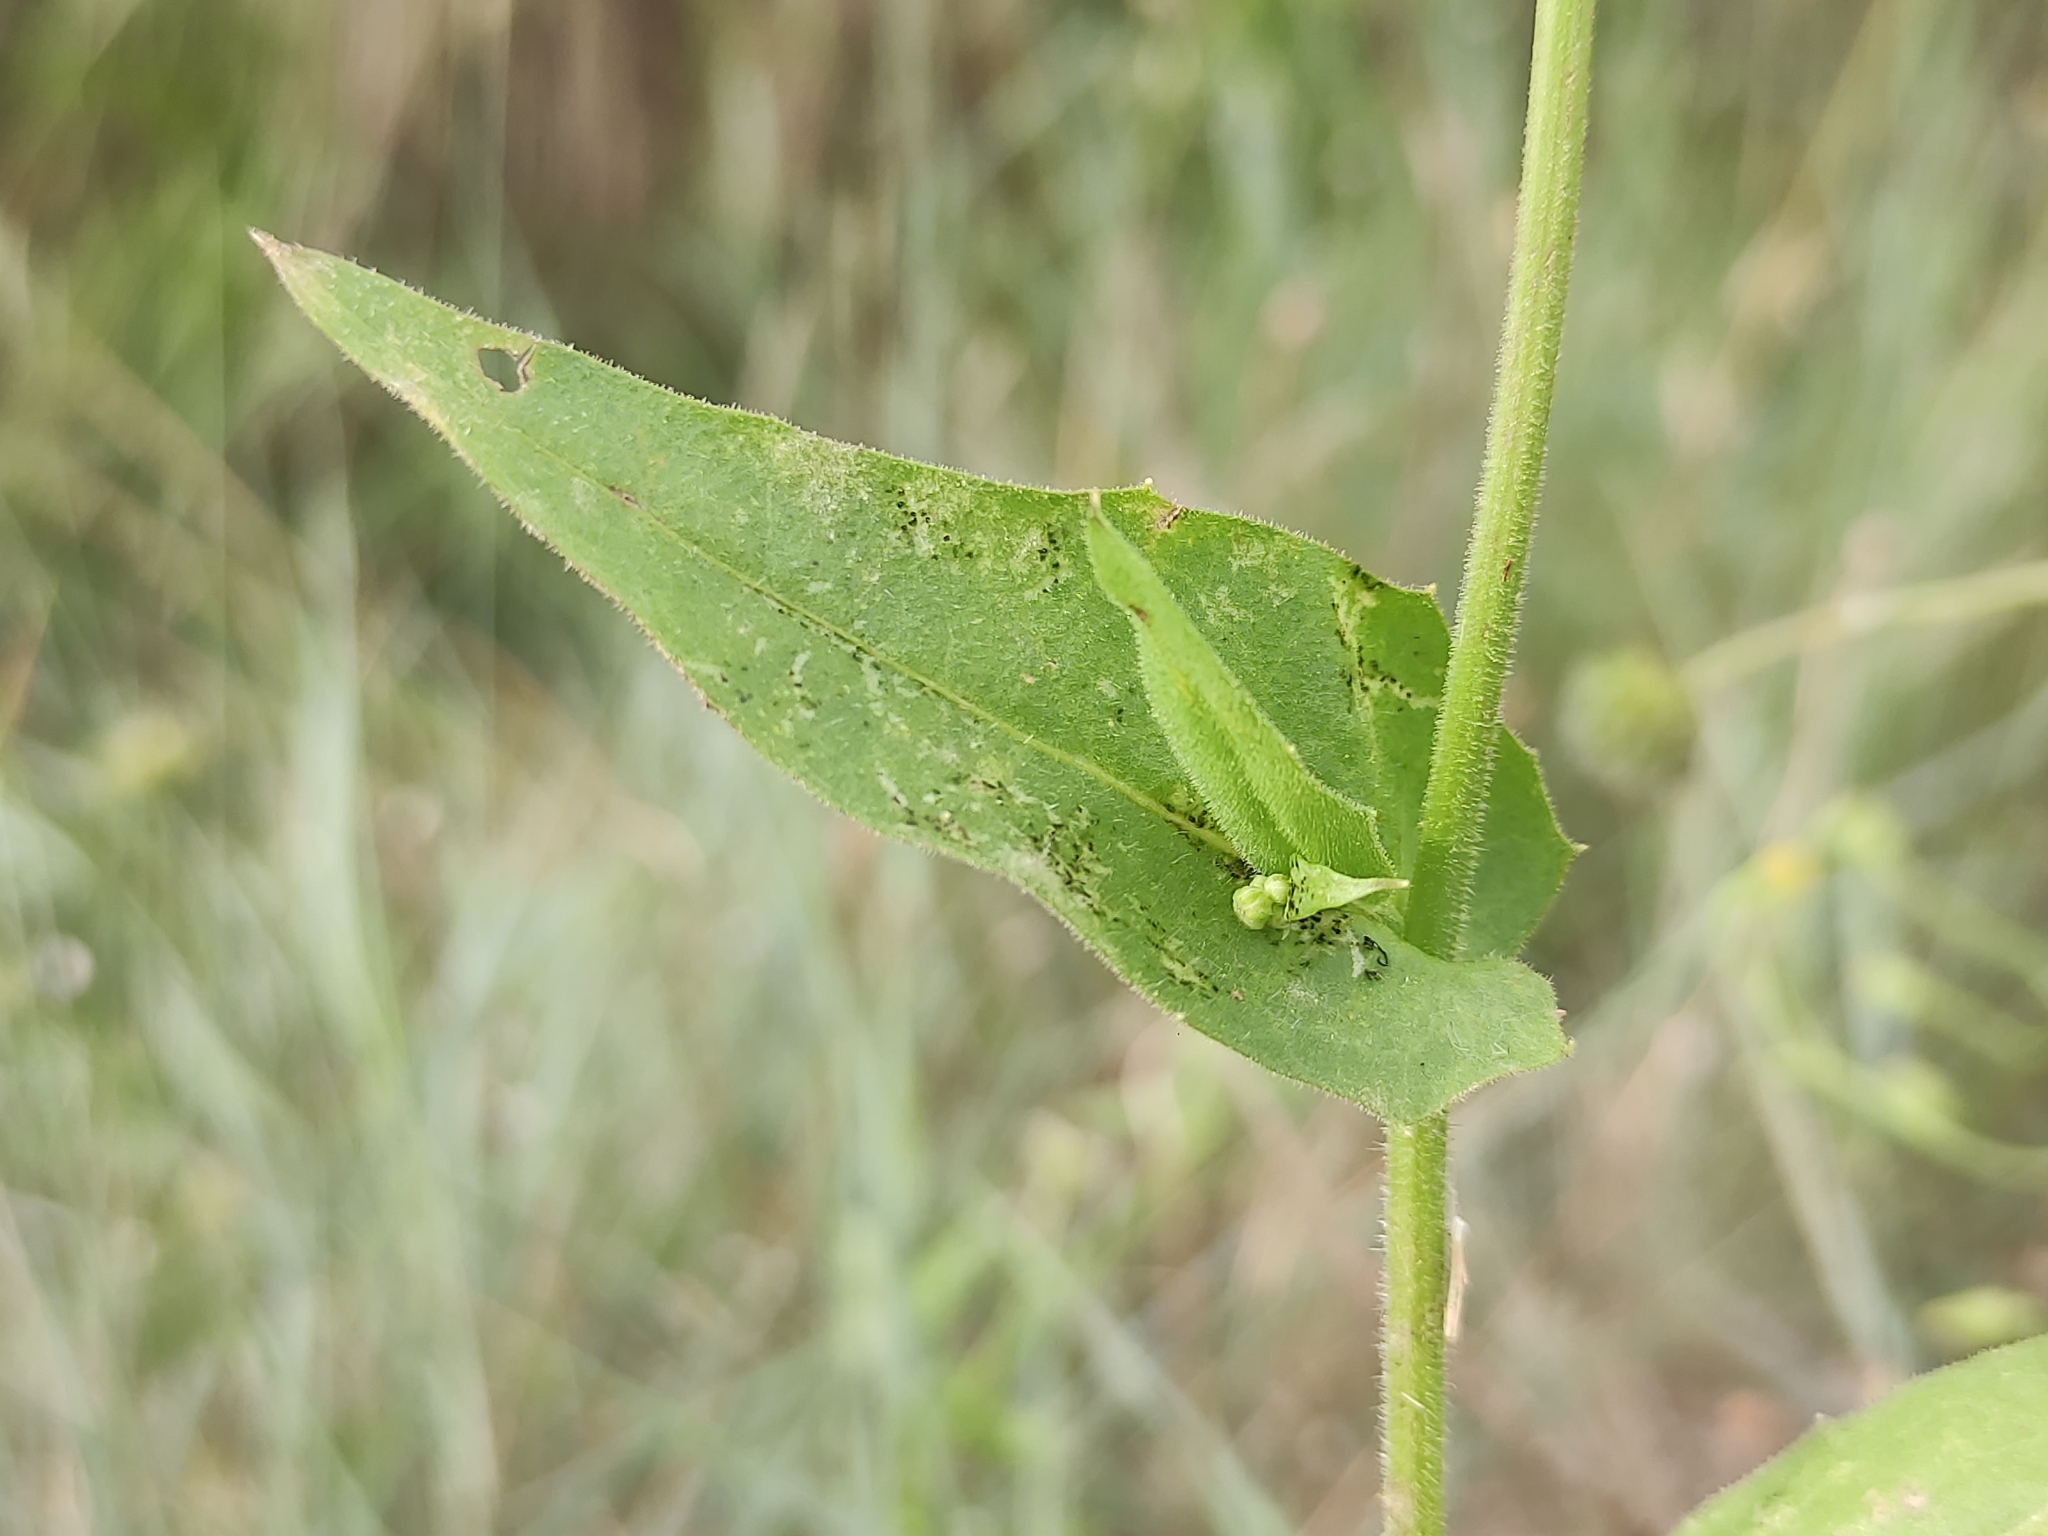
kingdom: Plantae
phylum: Tracheophyta
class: Magnoliopsida
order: Asterales
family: Asteraceae
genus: Crepis
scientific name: Crepis pulchra
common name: Hawk's-beard
